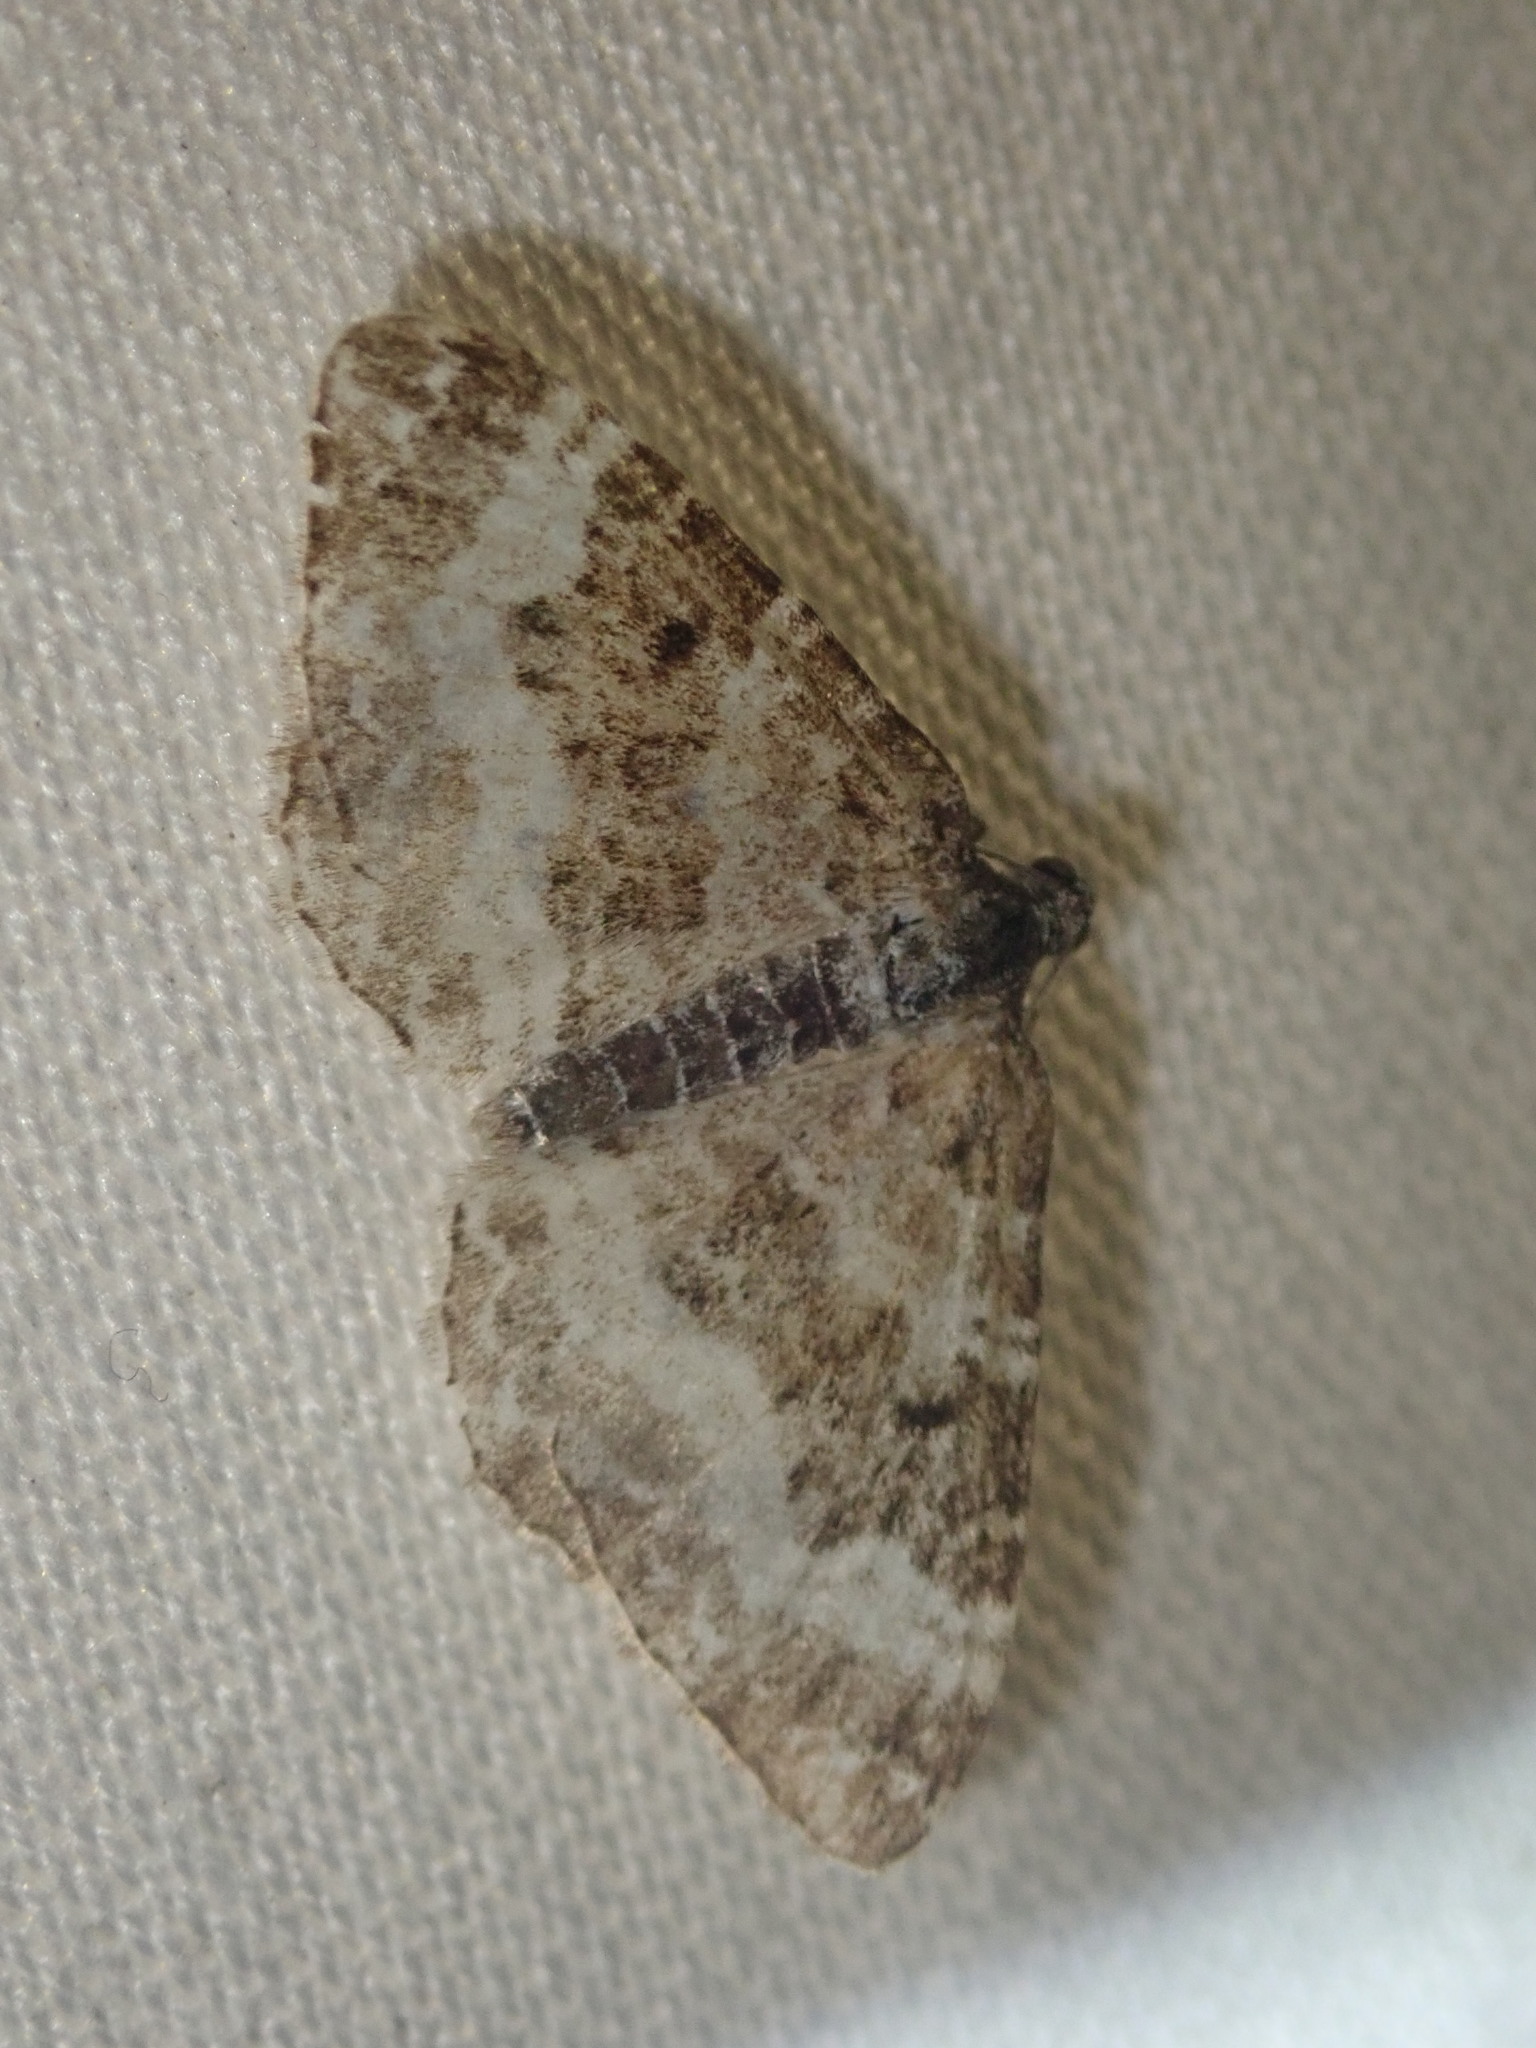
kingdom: Animalia
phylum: Arthropoda
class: Insecta
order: Lepidoptera
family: Geometridae
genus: Epirrhoe
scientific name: Epirrhoe alternata
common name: Common carpet
